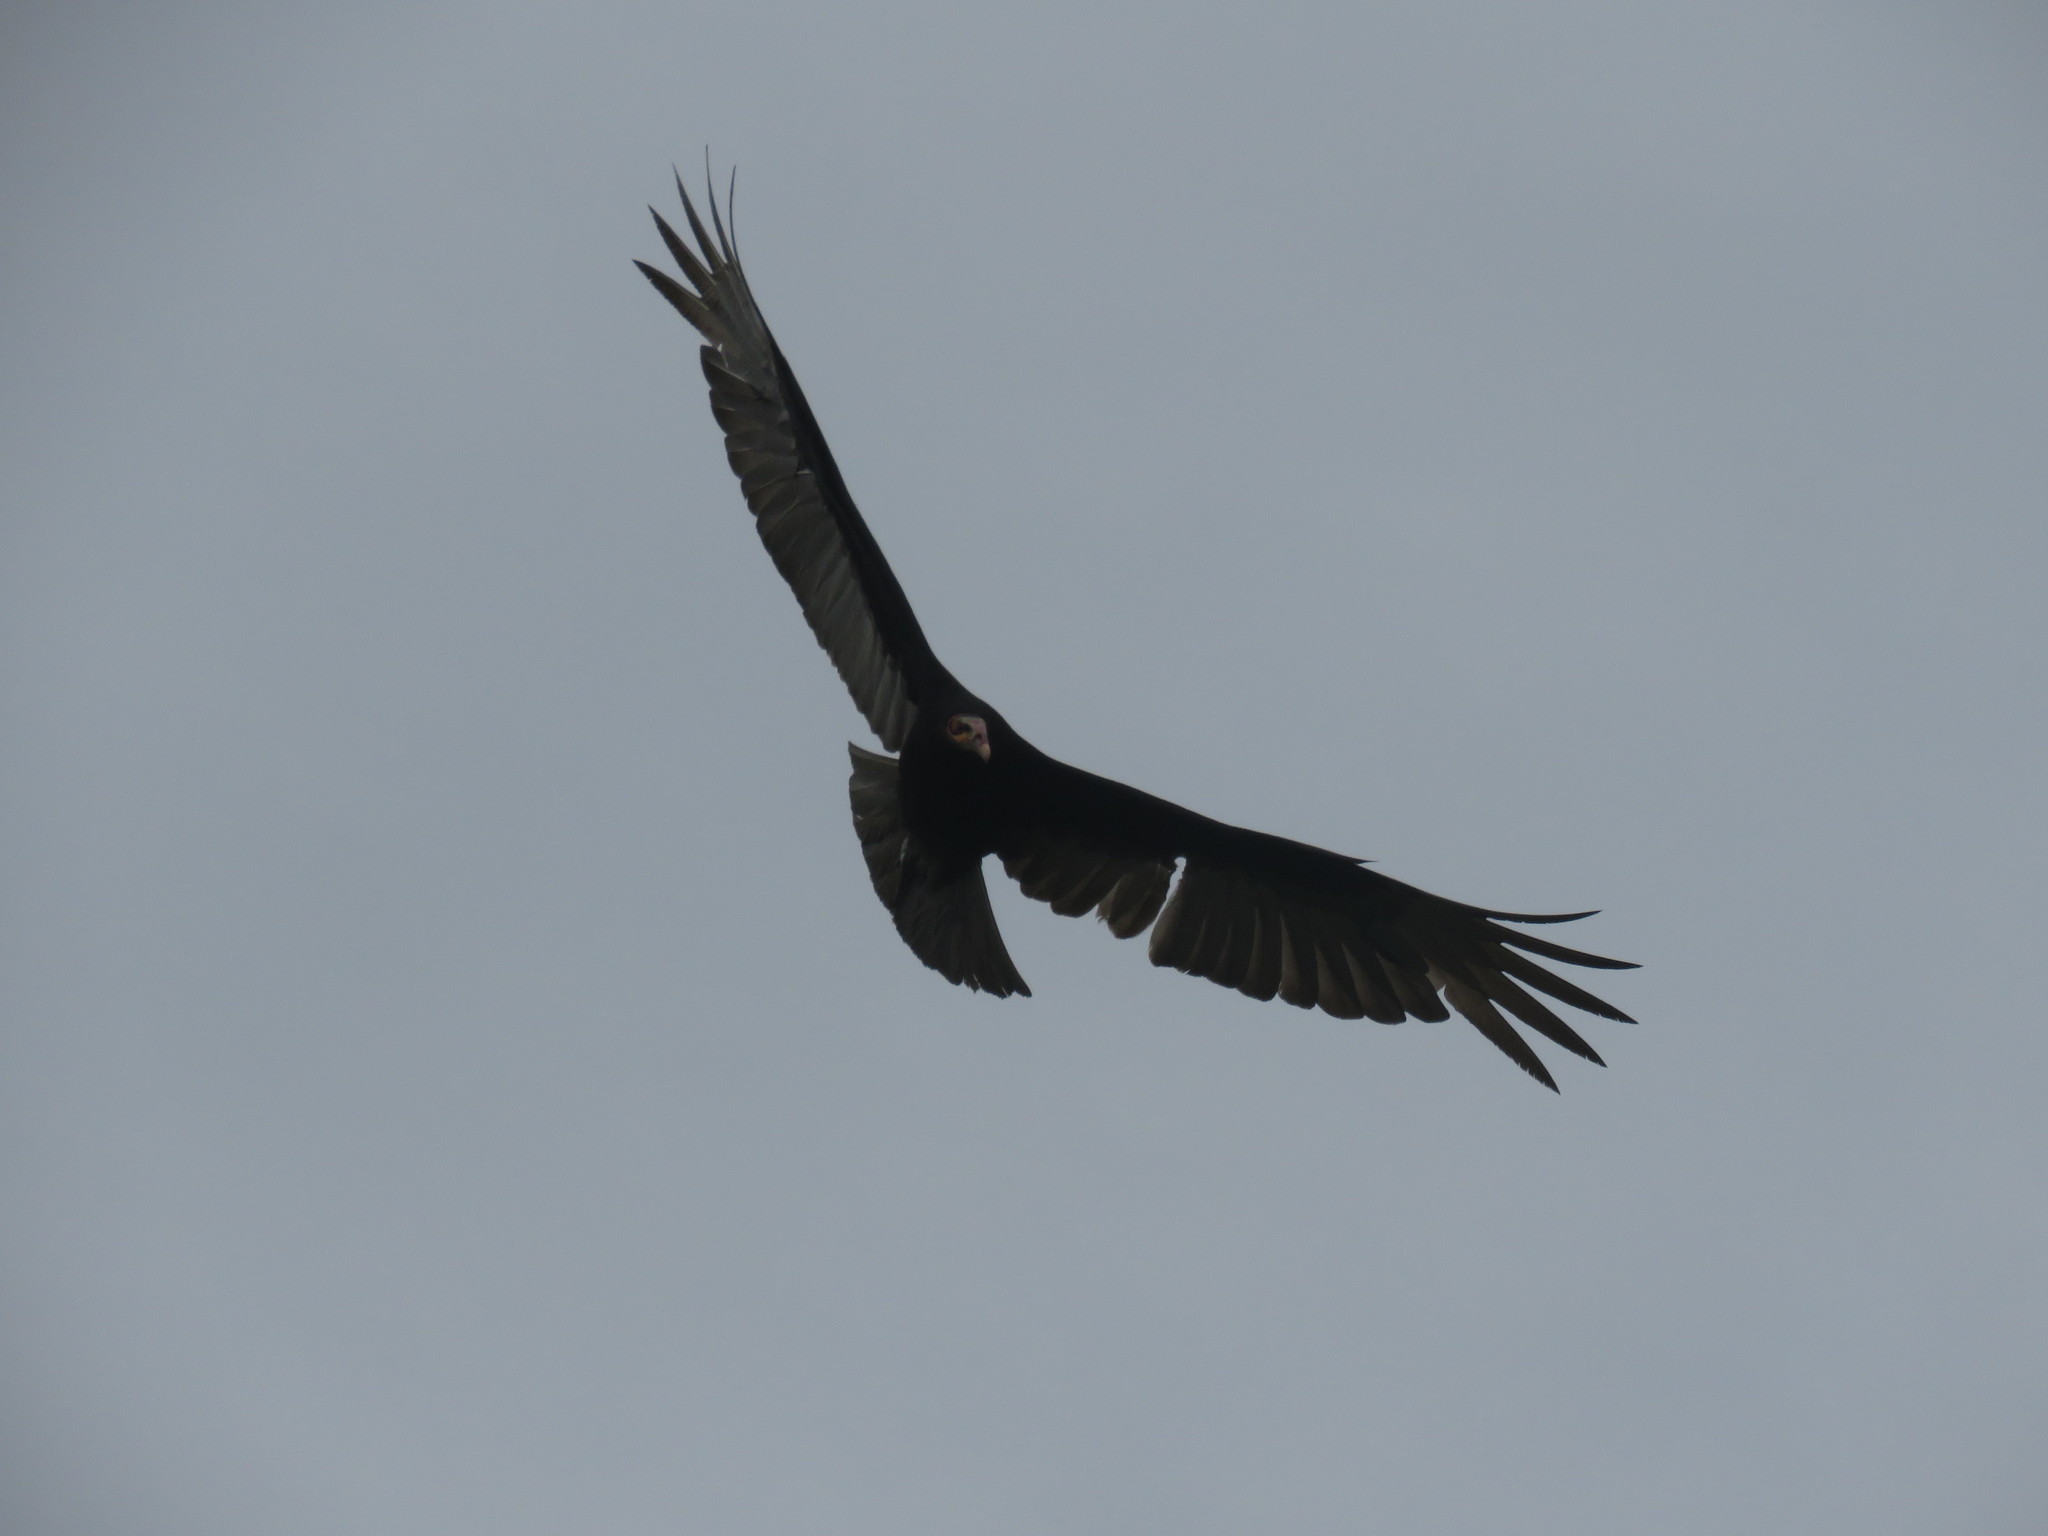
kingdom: Animalia
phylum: Chordata
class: Aves
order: Accipitriformes
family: Cathartidae
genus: Cathartes
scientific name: Cathartes burrovianus
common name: Lesser yellow-headed vulture
